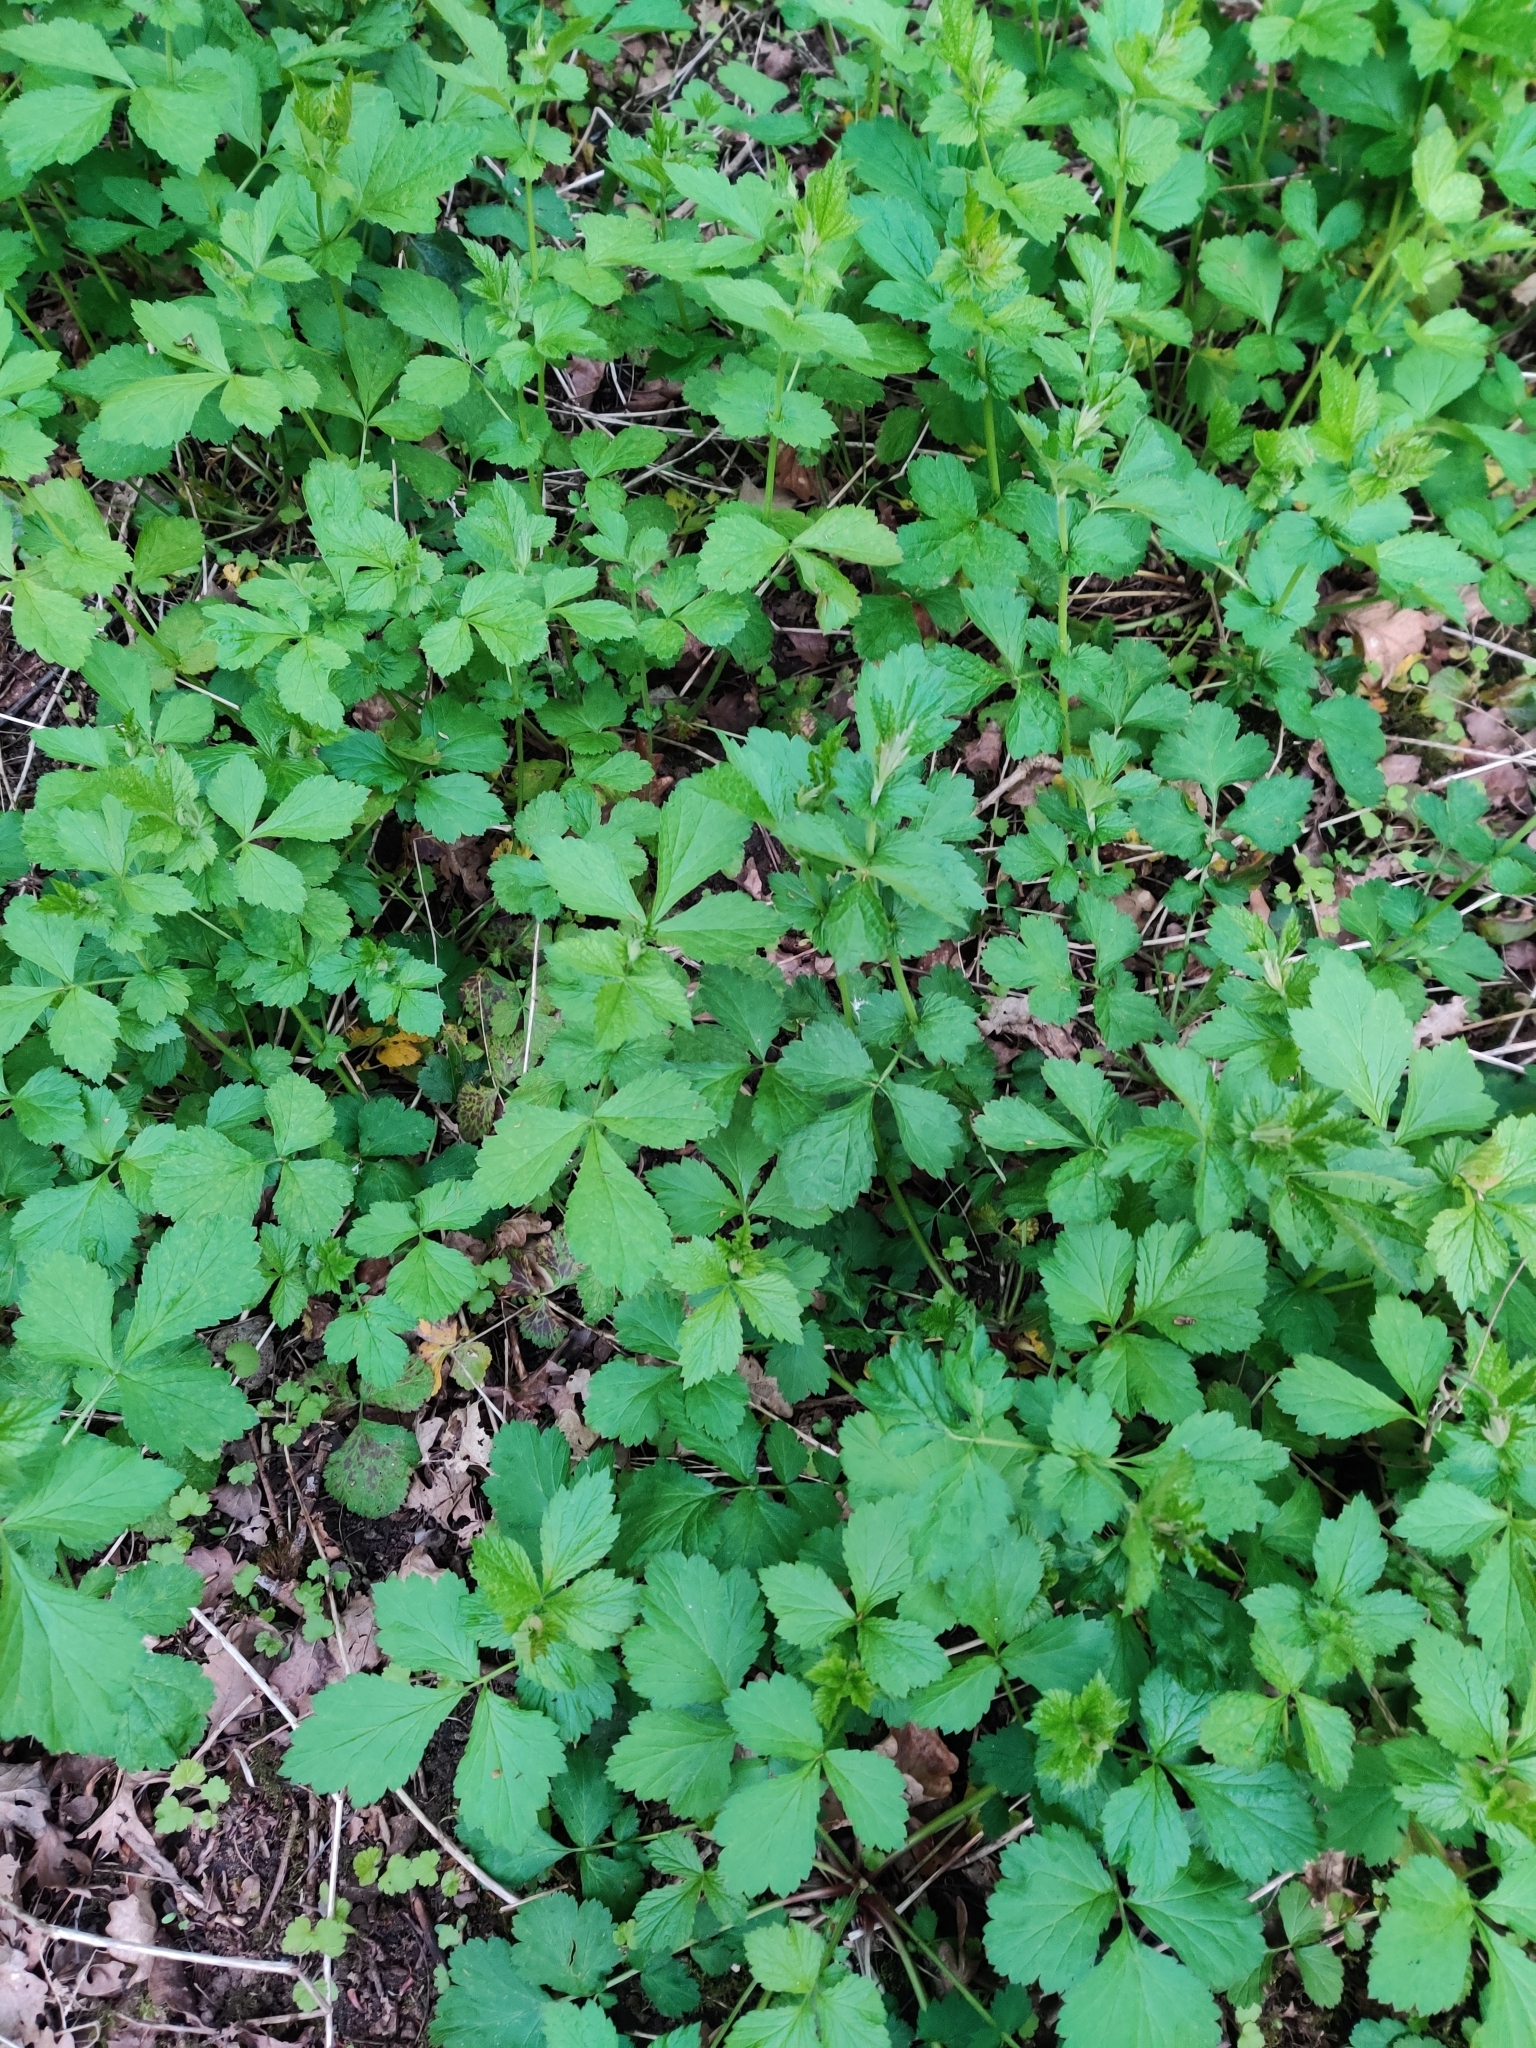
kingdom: Plantae
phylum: Tracheophyta
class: Magnoliopsida
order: Rosales
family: Rosaceae
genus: Geum
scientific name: Geum urbanum
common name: Wood avens
